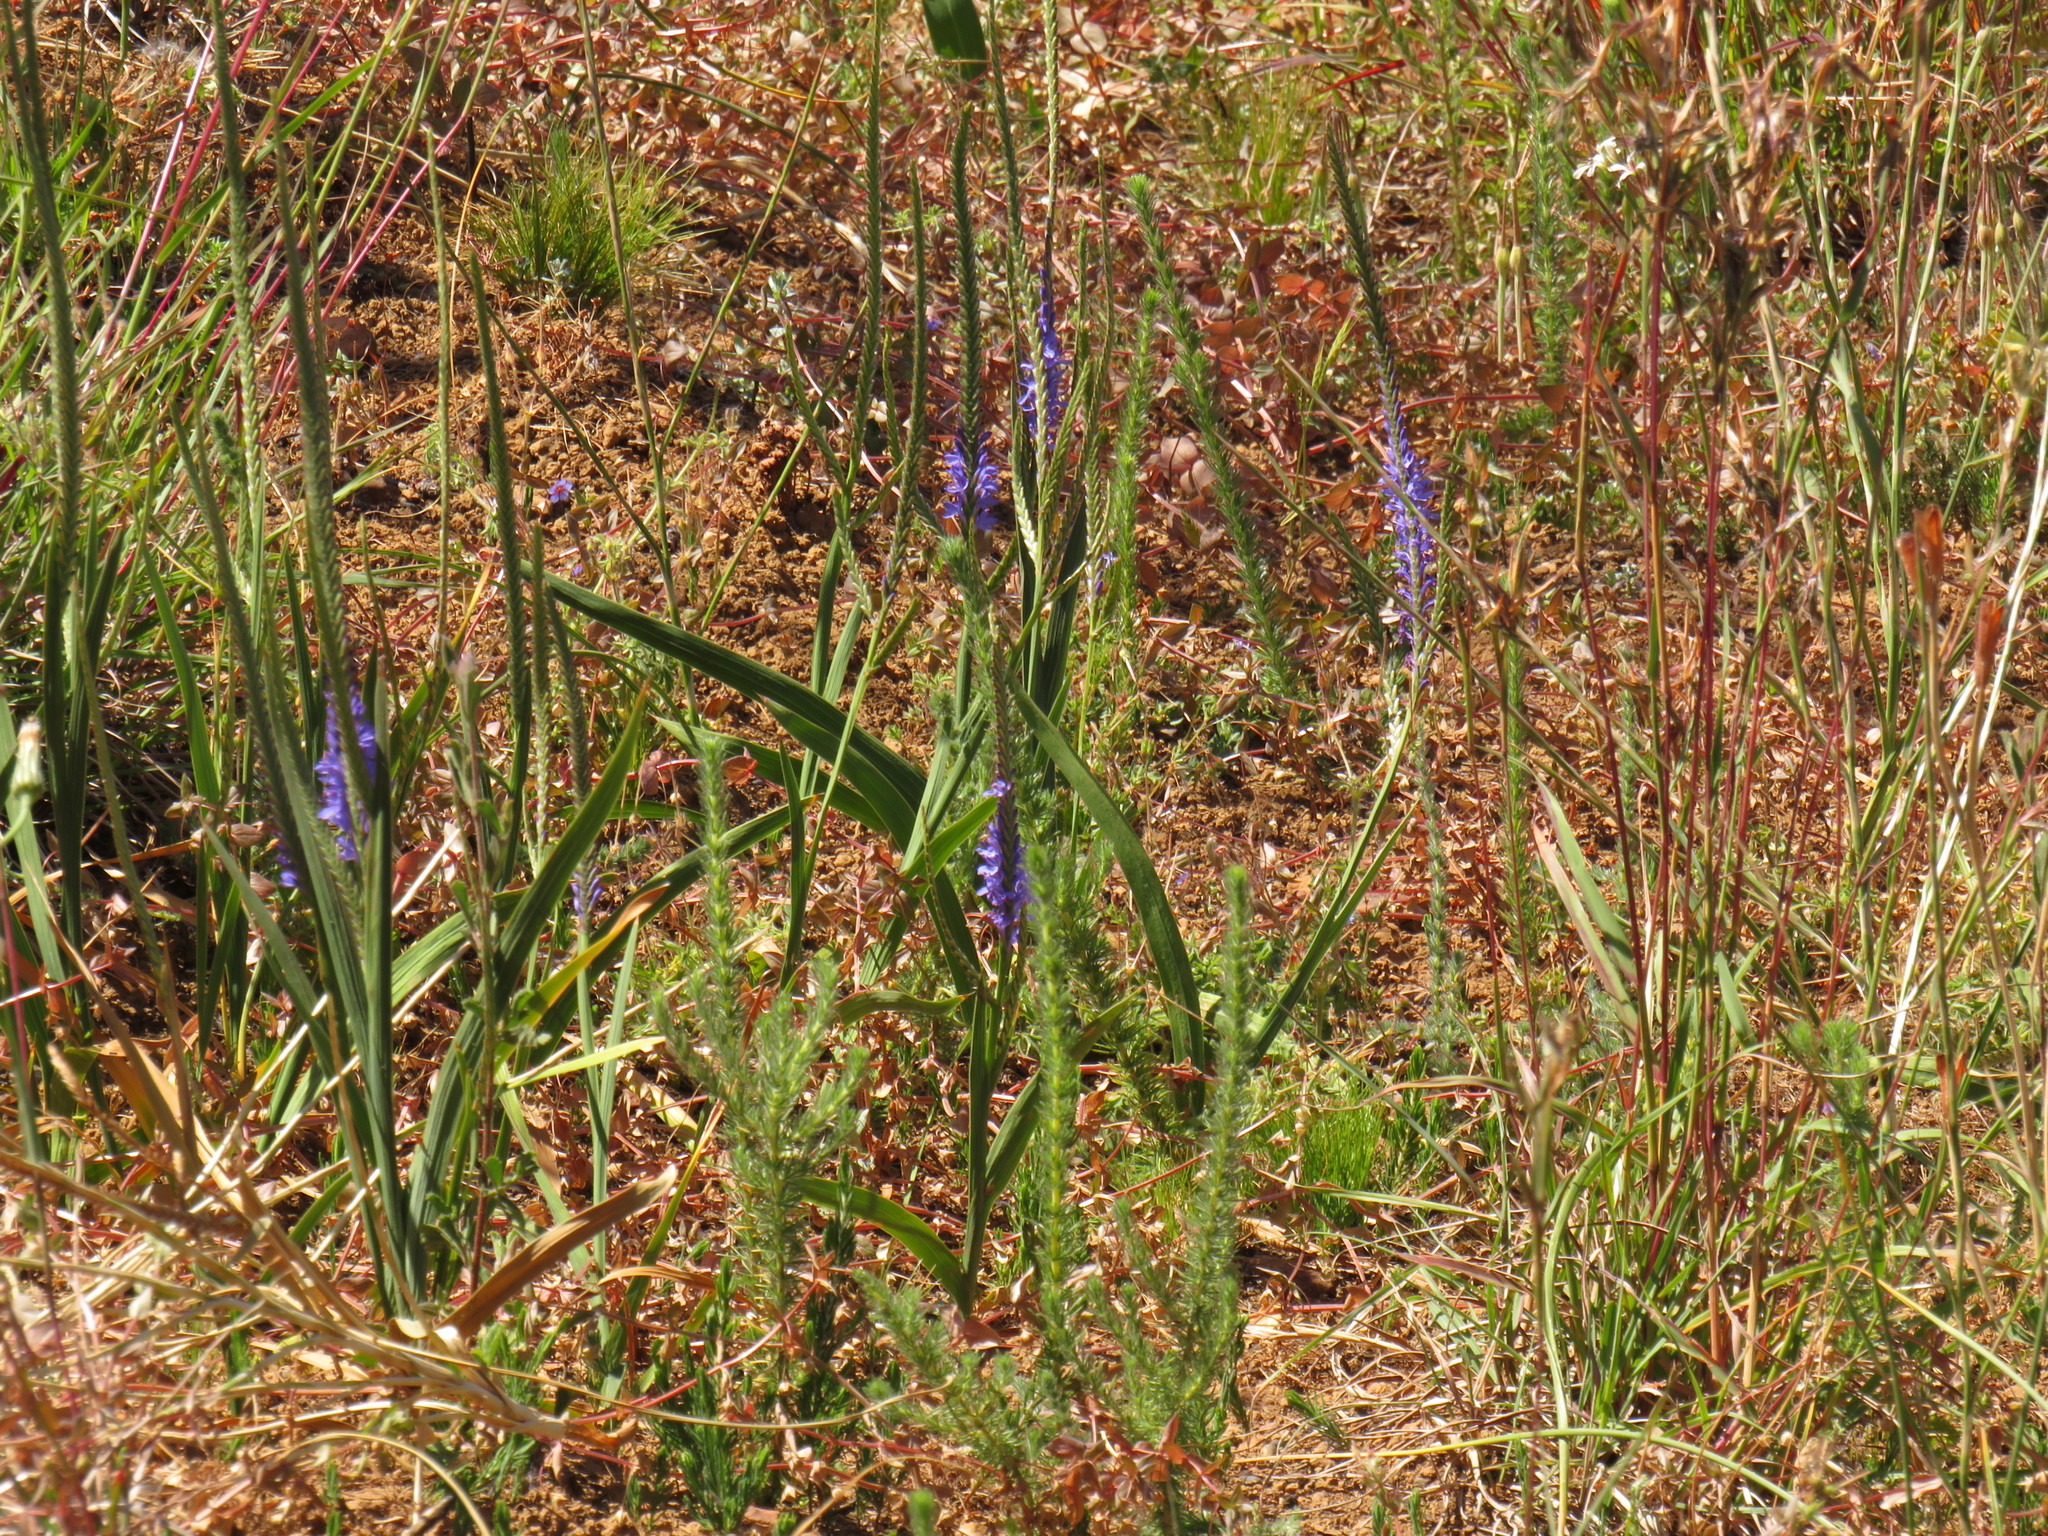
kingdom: Plantae
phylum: Tracheophyta
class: Liliopsida
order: Asparagales
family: Iridaceae
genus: Micranthus
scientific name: Micranthus alopecuroides
